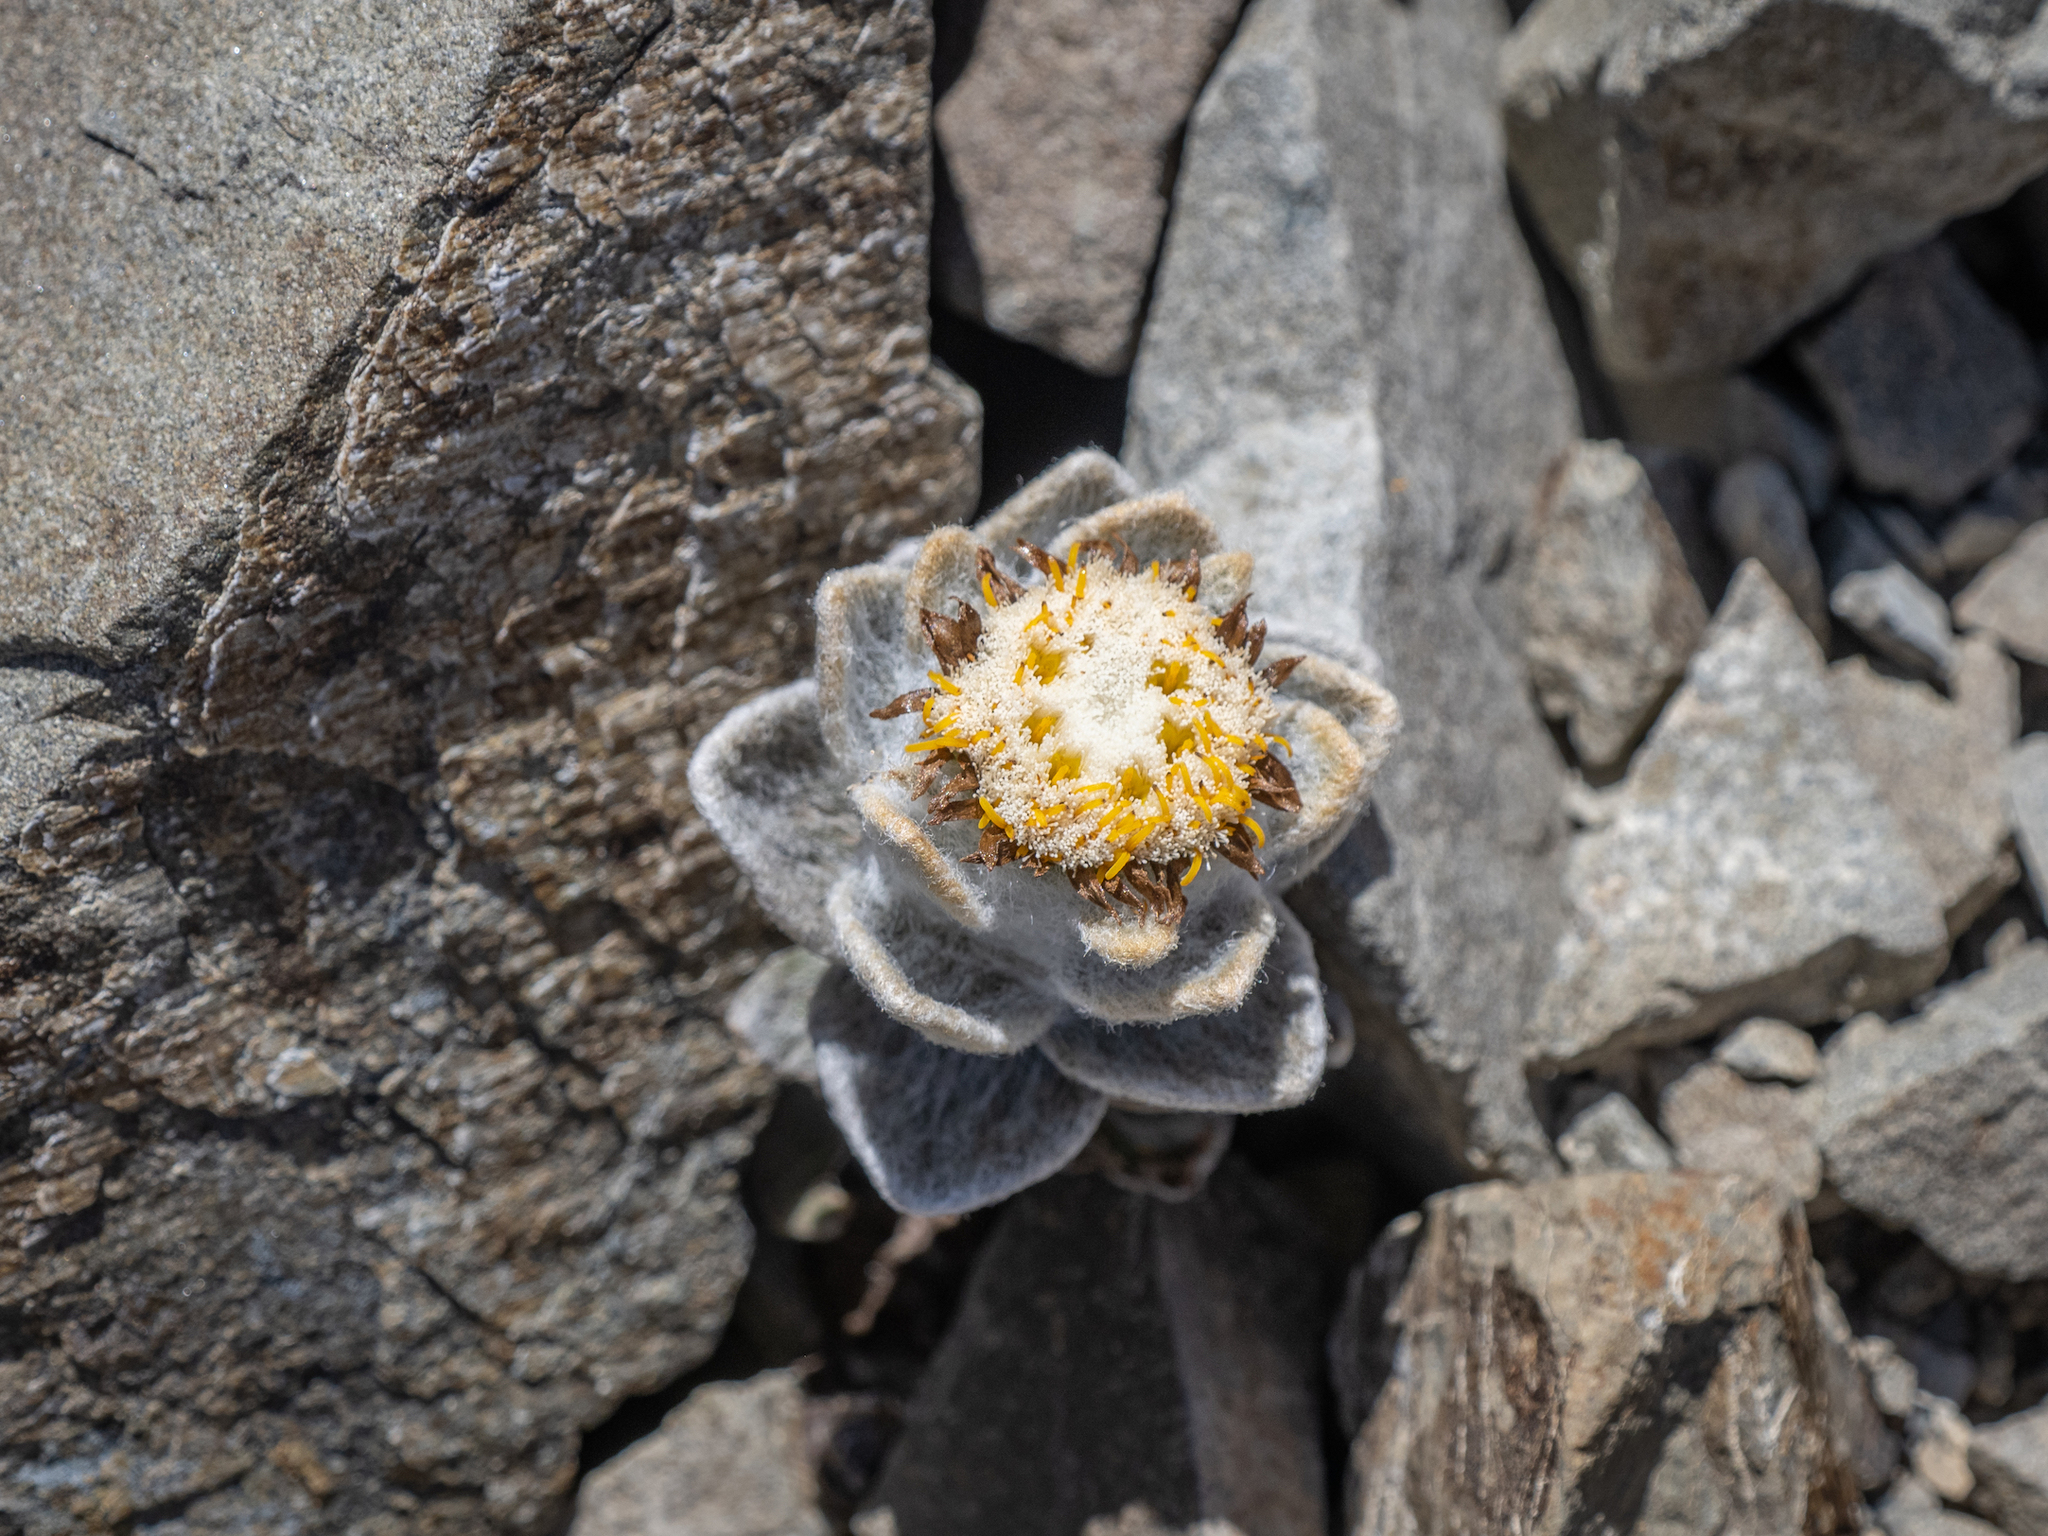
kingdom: Plantae
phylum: Tracheophyta
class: Magnoliopsida
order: Asterales
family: Asteraceae
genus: Haastia
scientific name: Haastia sinclairii
